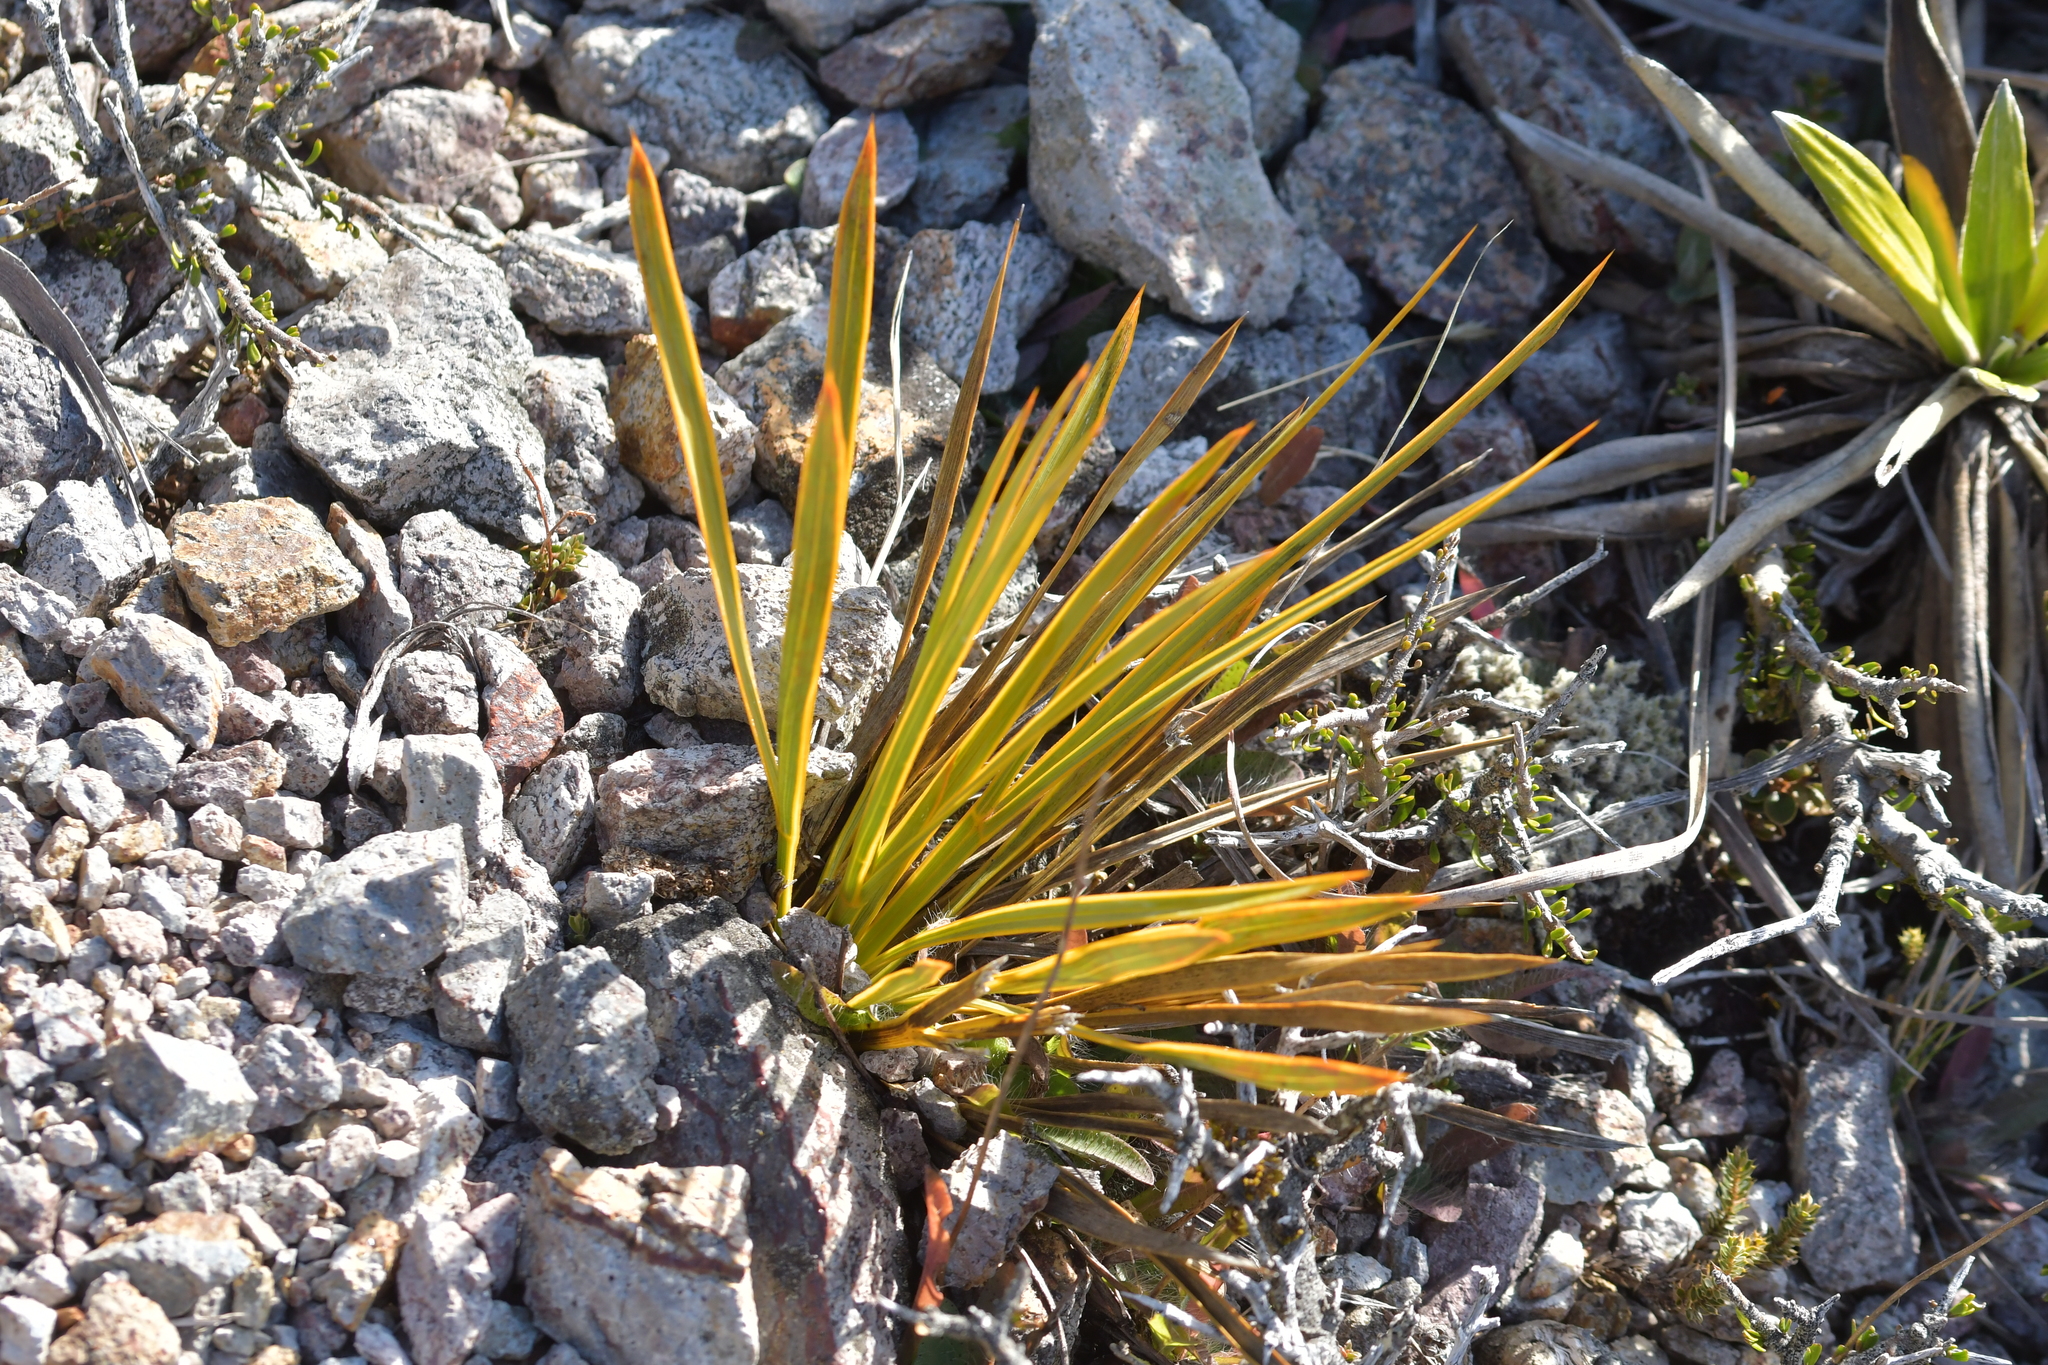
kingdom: Plantae
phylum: Tracheophyta
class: Magnoliopsida
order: Apiales
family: Apiaceae
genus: Aciphylla
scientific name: Aciphylla aurea
